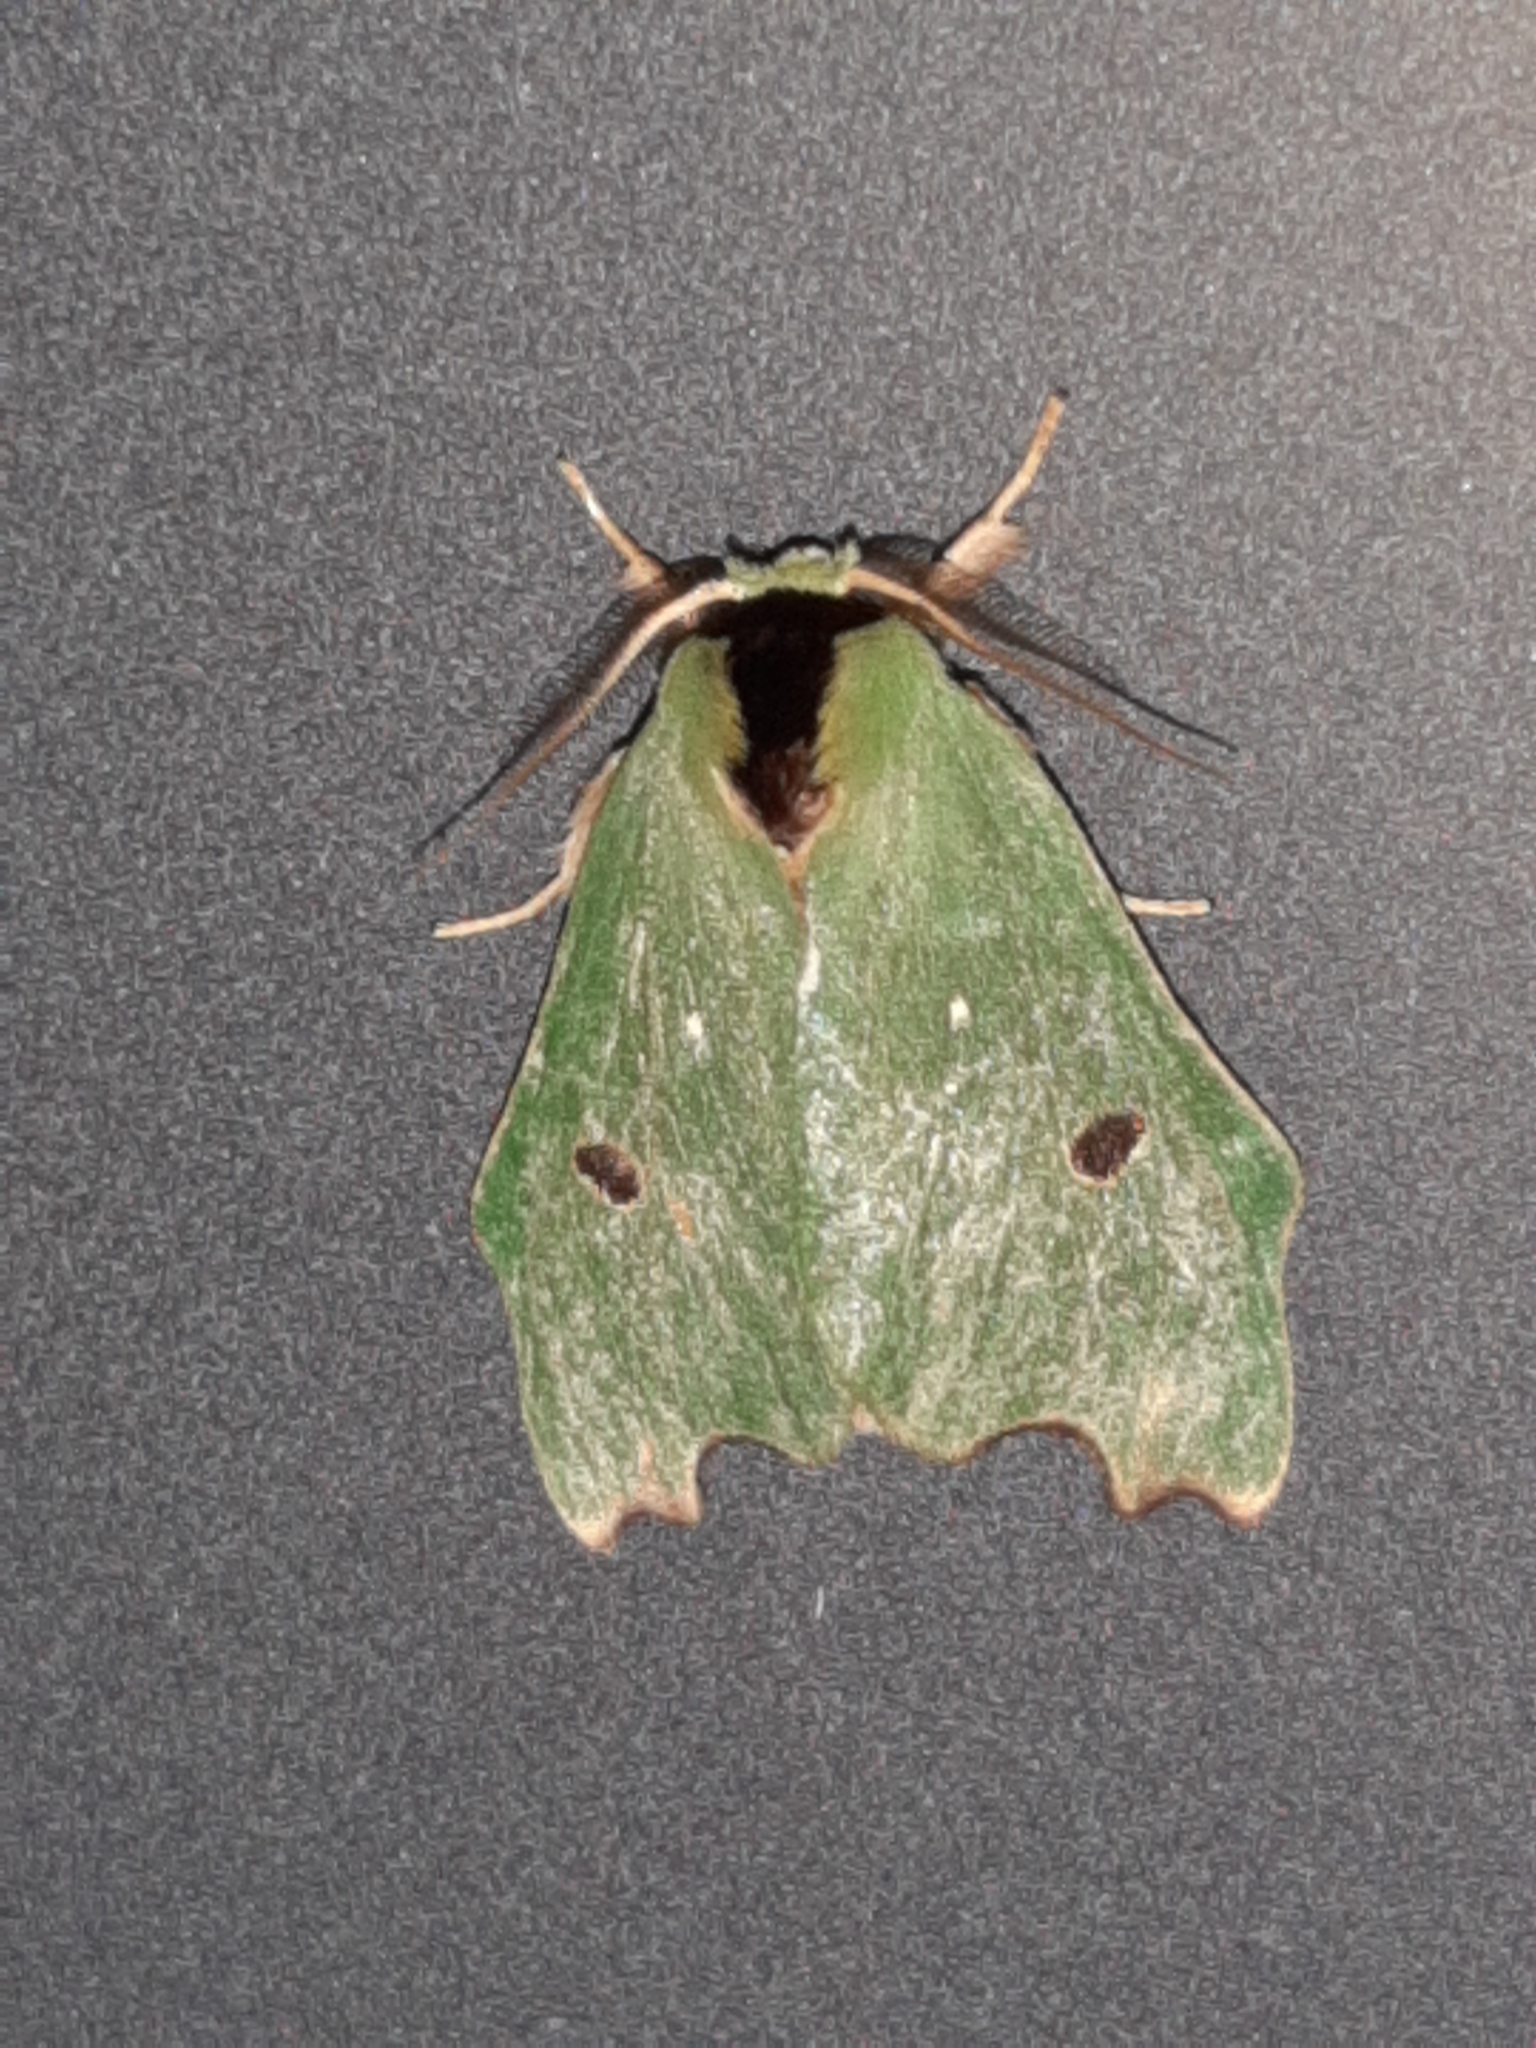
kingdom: Animalia
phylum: Arthropoda
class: Insecta
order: Lepidoptera
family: Notodontidae
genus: Rosema
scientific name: Rosema deolis
